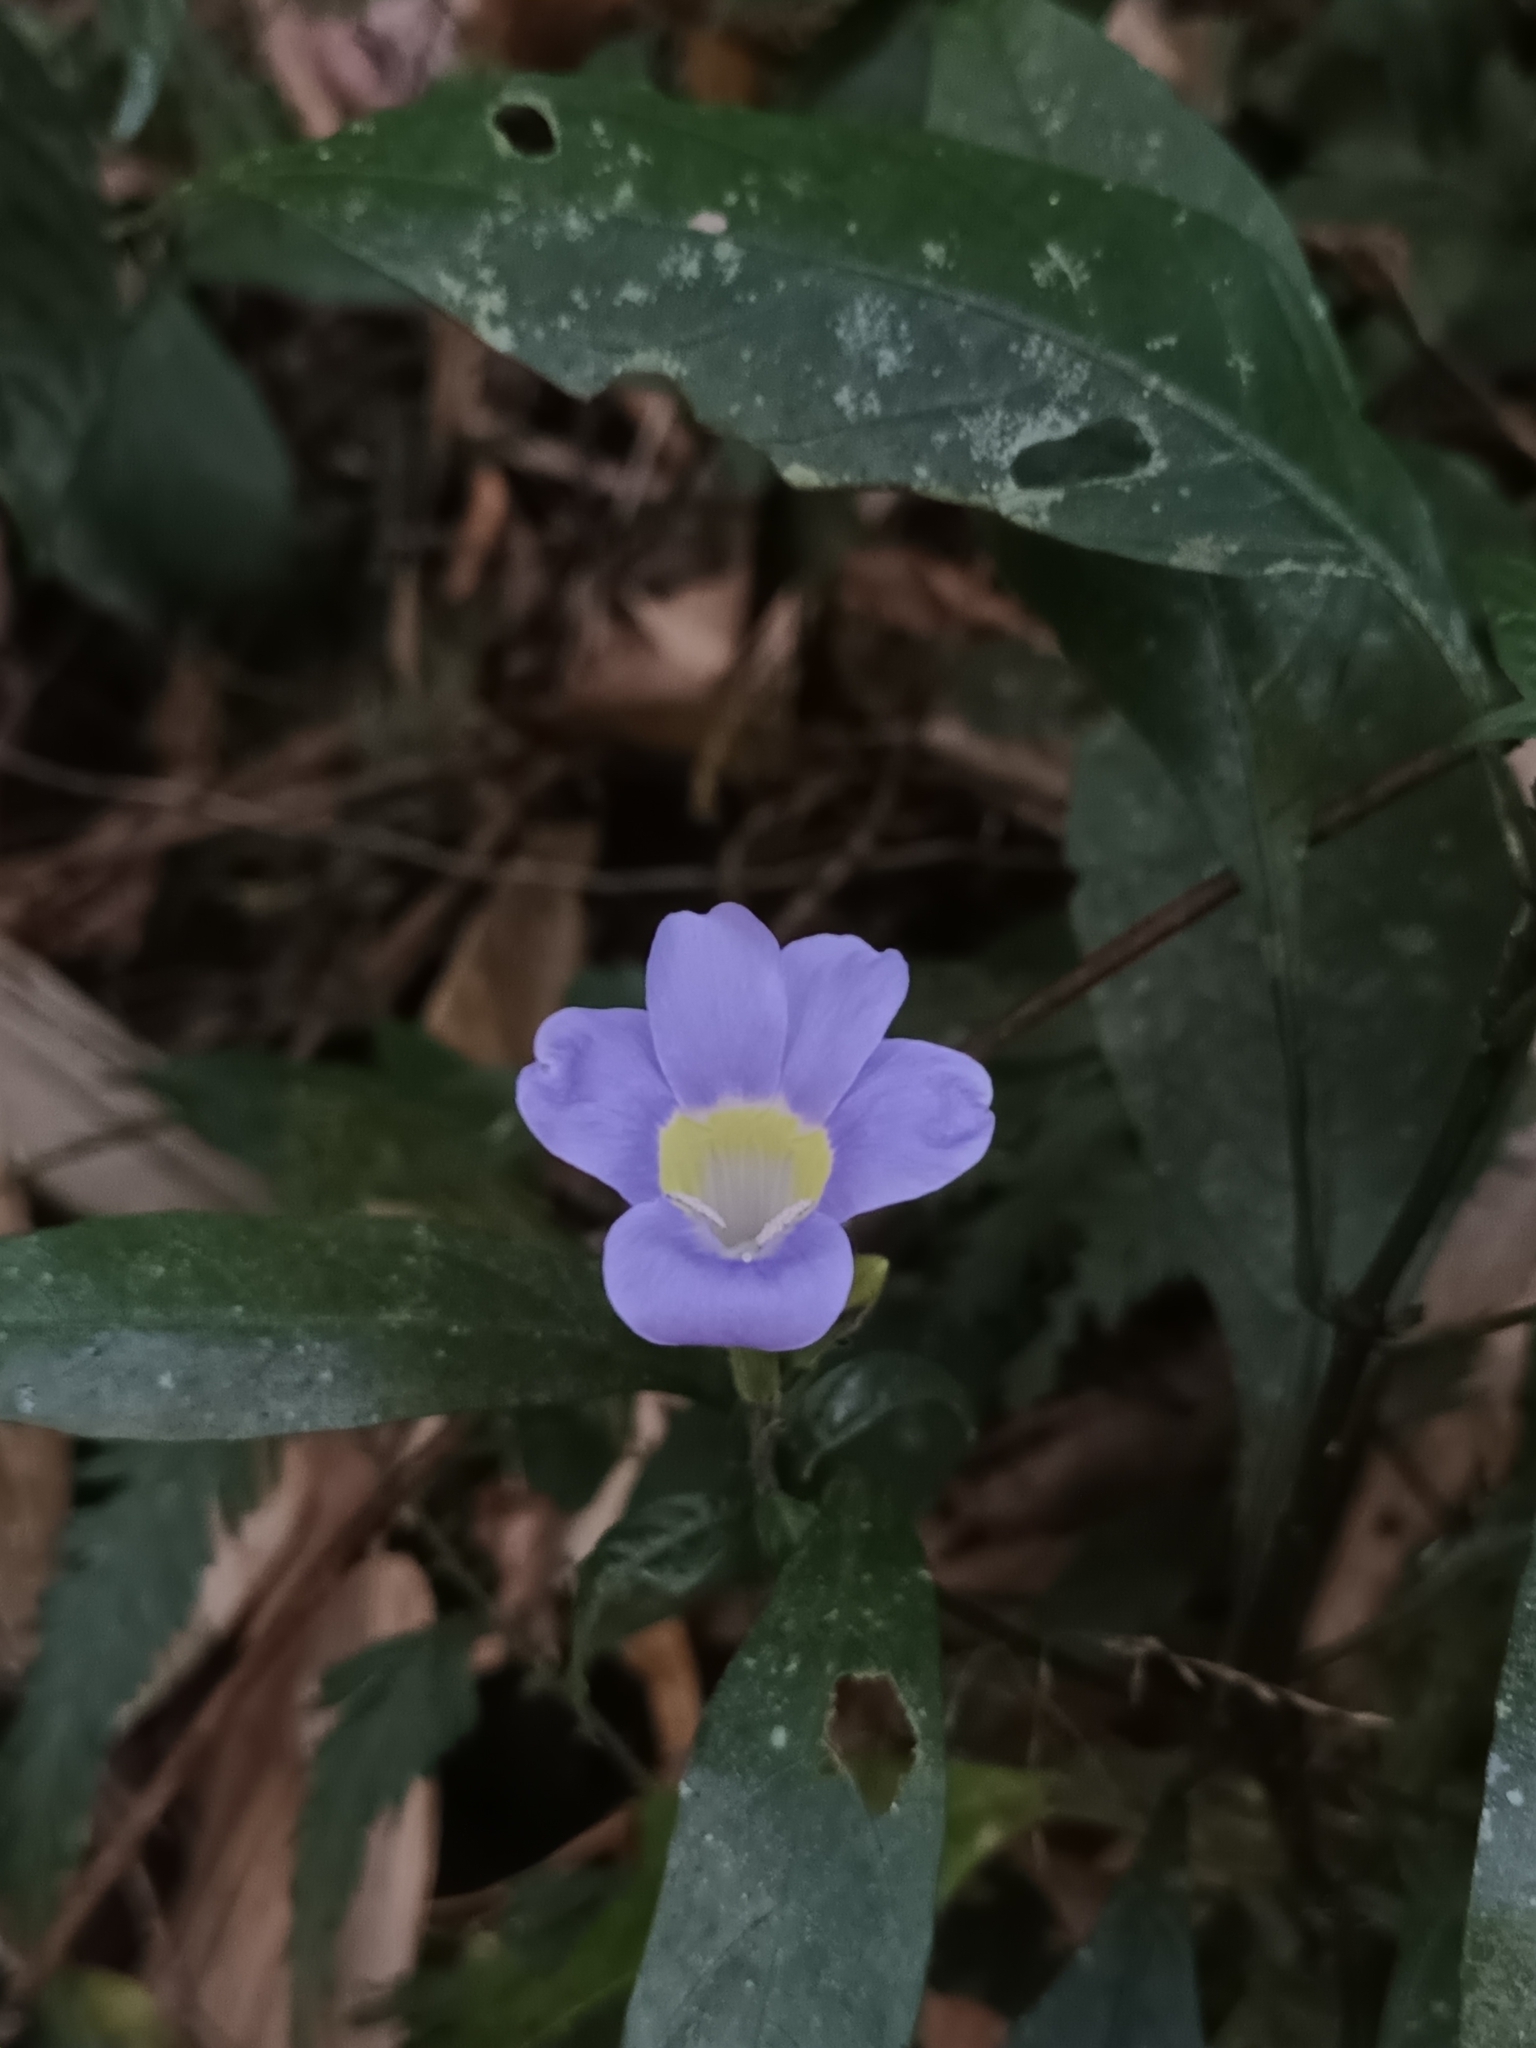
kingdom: Plantae
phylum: Tracheophyta
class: Magnoliopsida
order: Lamiales
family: Acanthaceae
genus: Barleria
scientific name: Barleria courtallica
